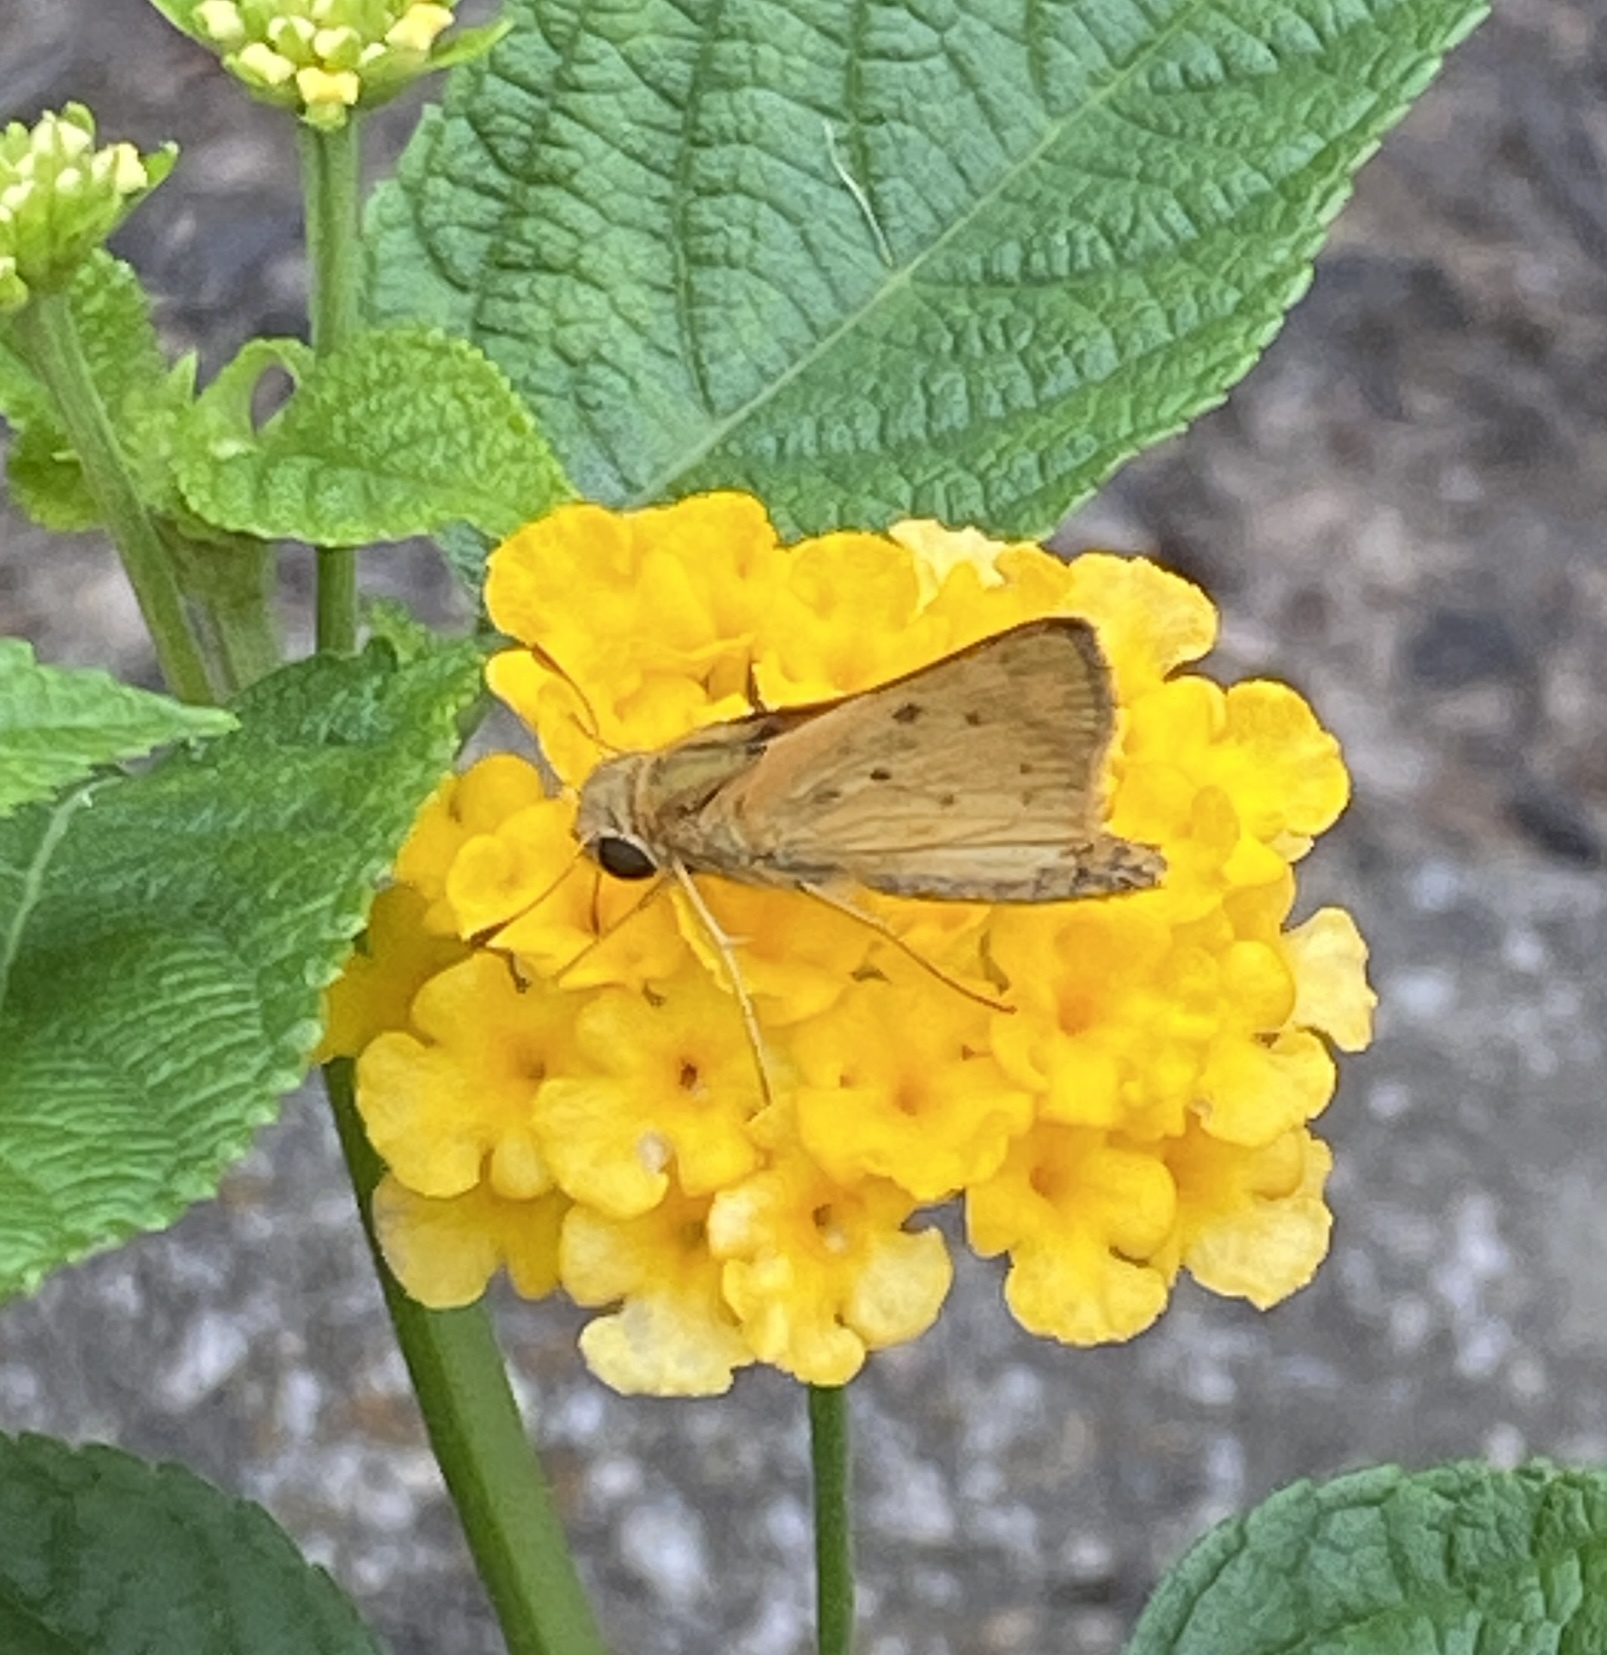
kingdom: Animalia
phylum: Arthropoda
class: Insecta
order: Lepidoptera
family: Hesperiidae
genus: Hylephila
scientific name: Hylephila phyleus
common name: Fiery skipper
